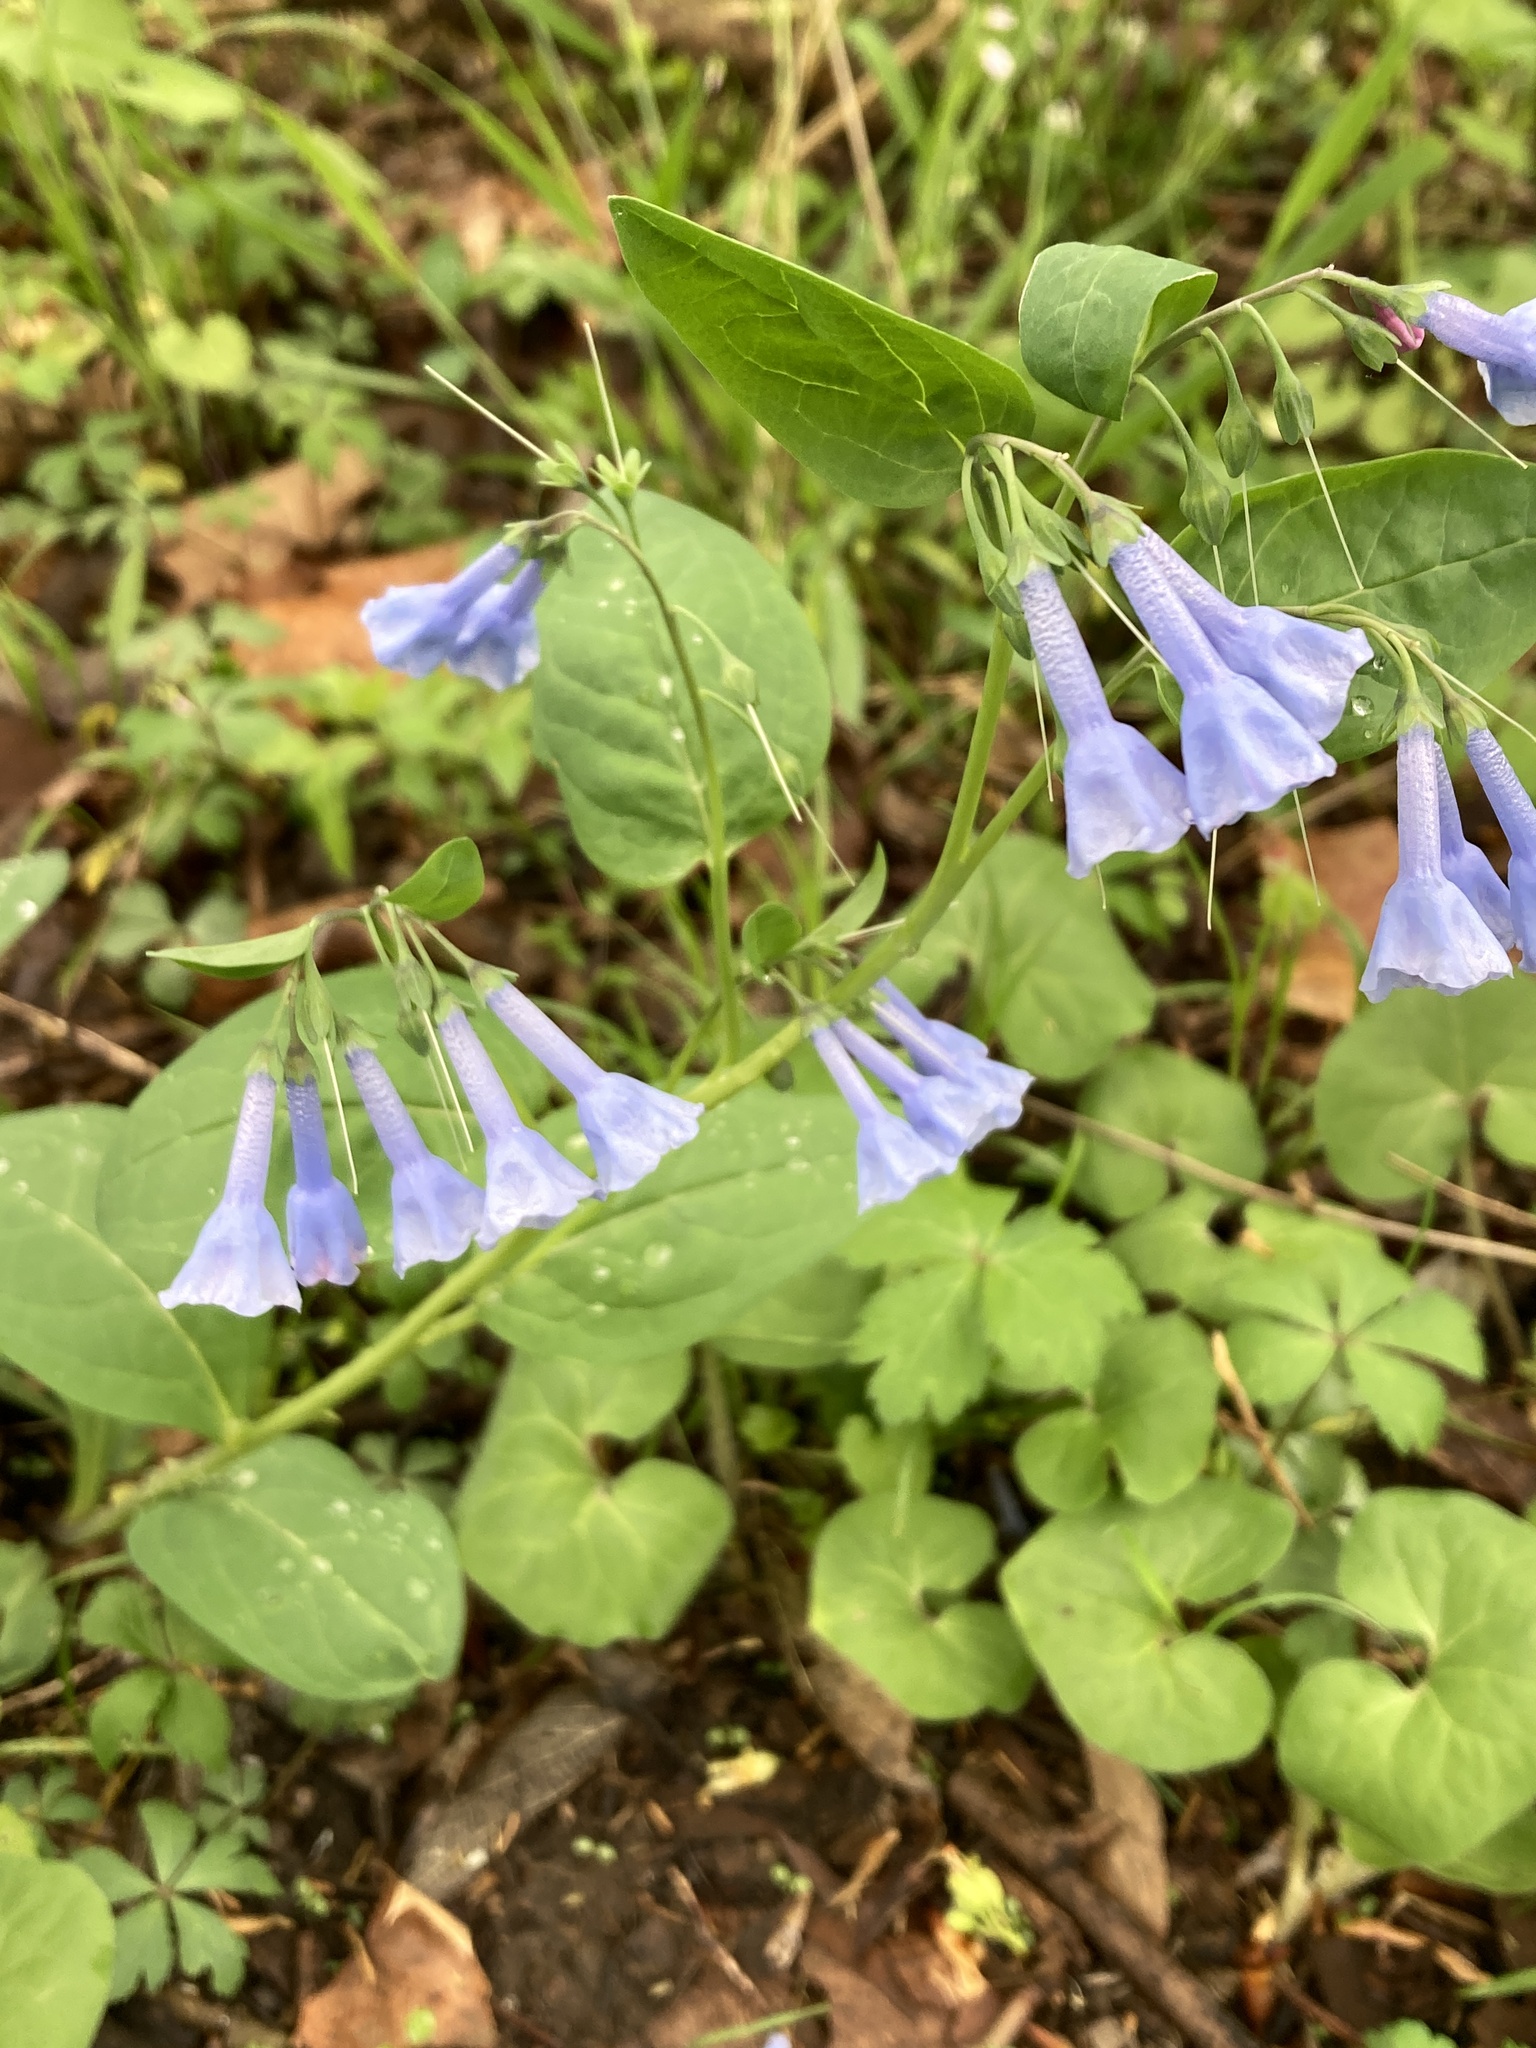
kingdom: Plantae
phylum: Tracheophyta
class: Magnoliopsida
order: Boraginales
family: Boraginaceae
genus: Mertensia
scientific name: Mertensia virginica
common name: Virginia bluebells
